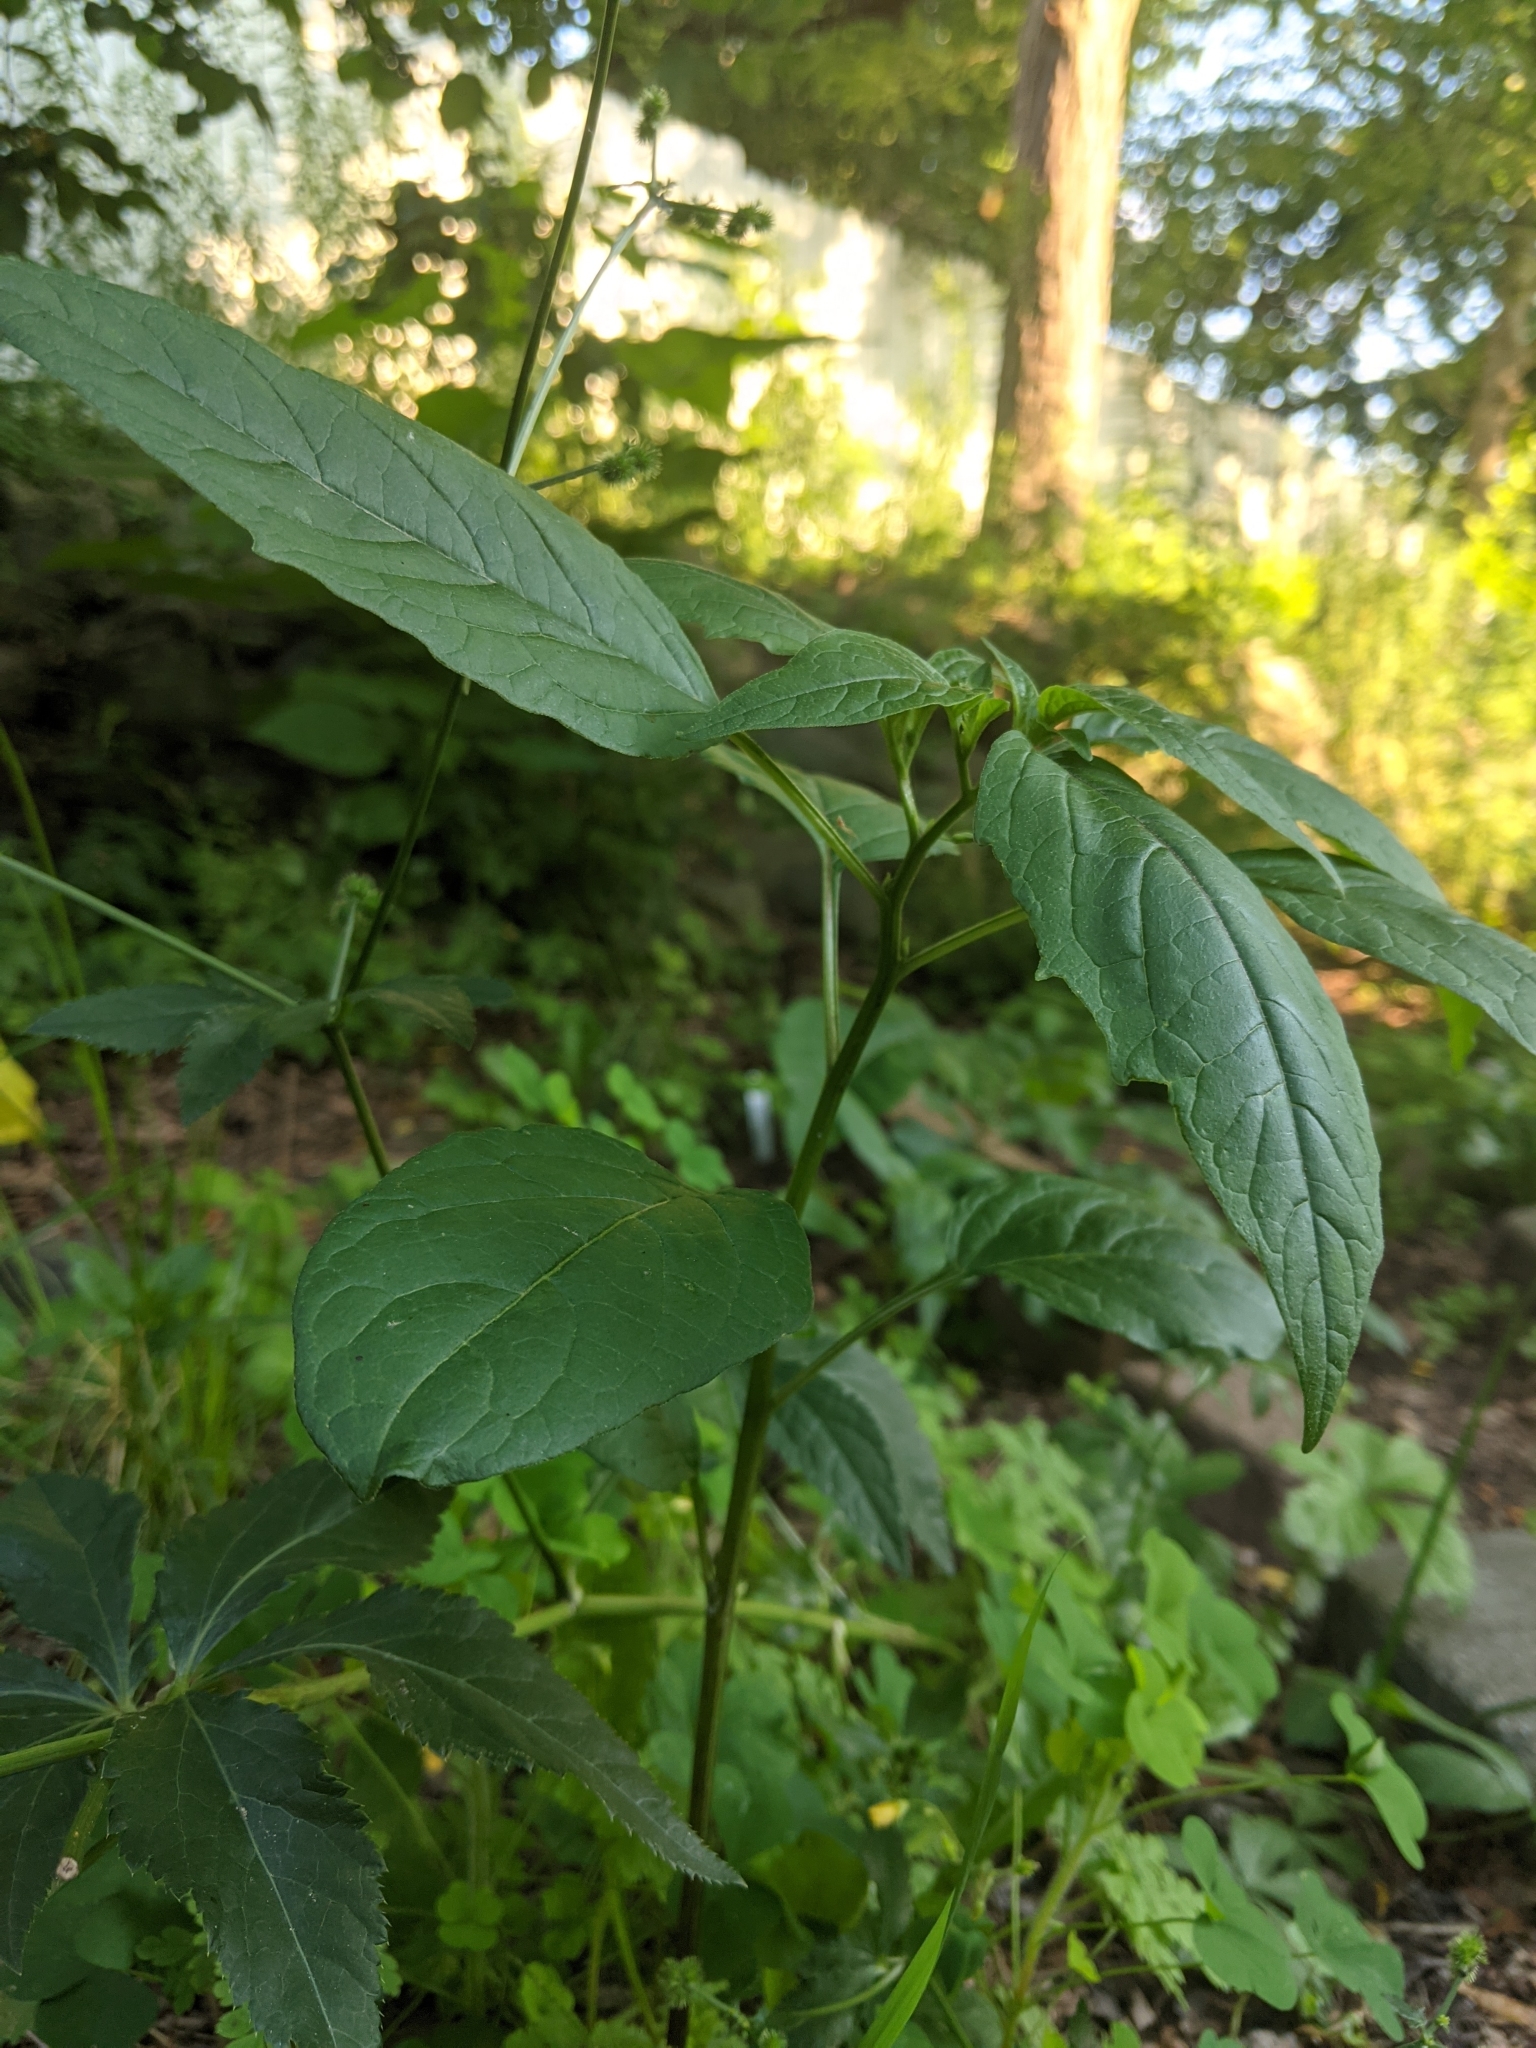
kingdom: Plantae
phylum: Tracheophyta
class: Magnoliopsida
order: Solanales
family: Solanaceae
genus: Physalis
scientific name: Physalis longifolia
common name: Common ground-cherry
